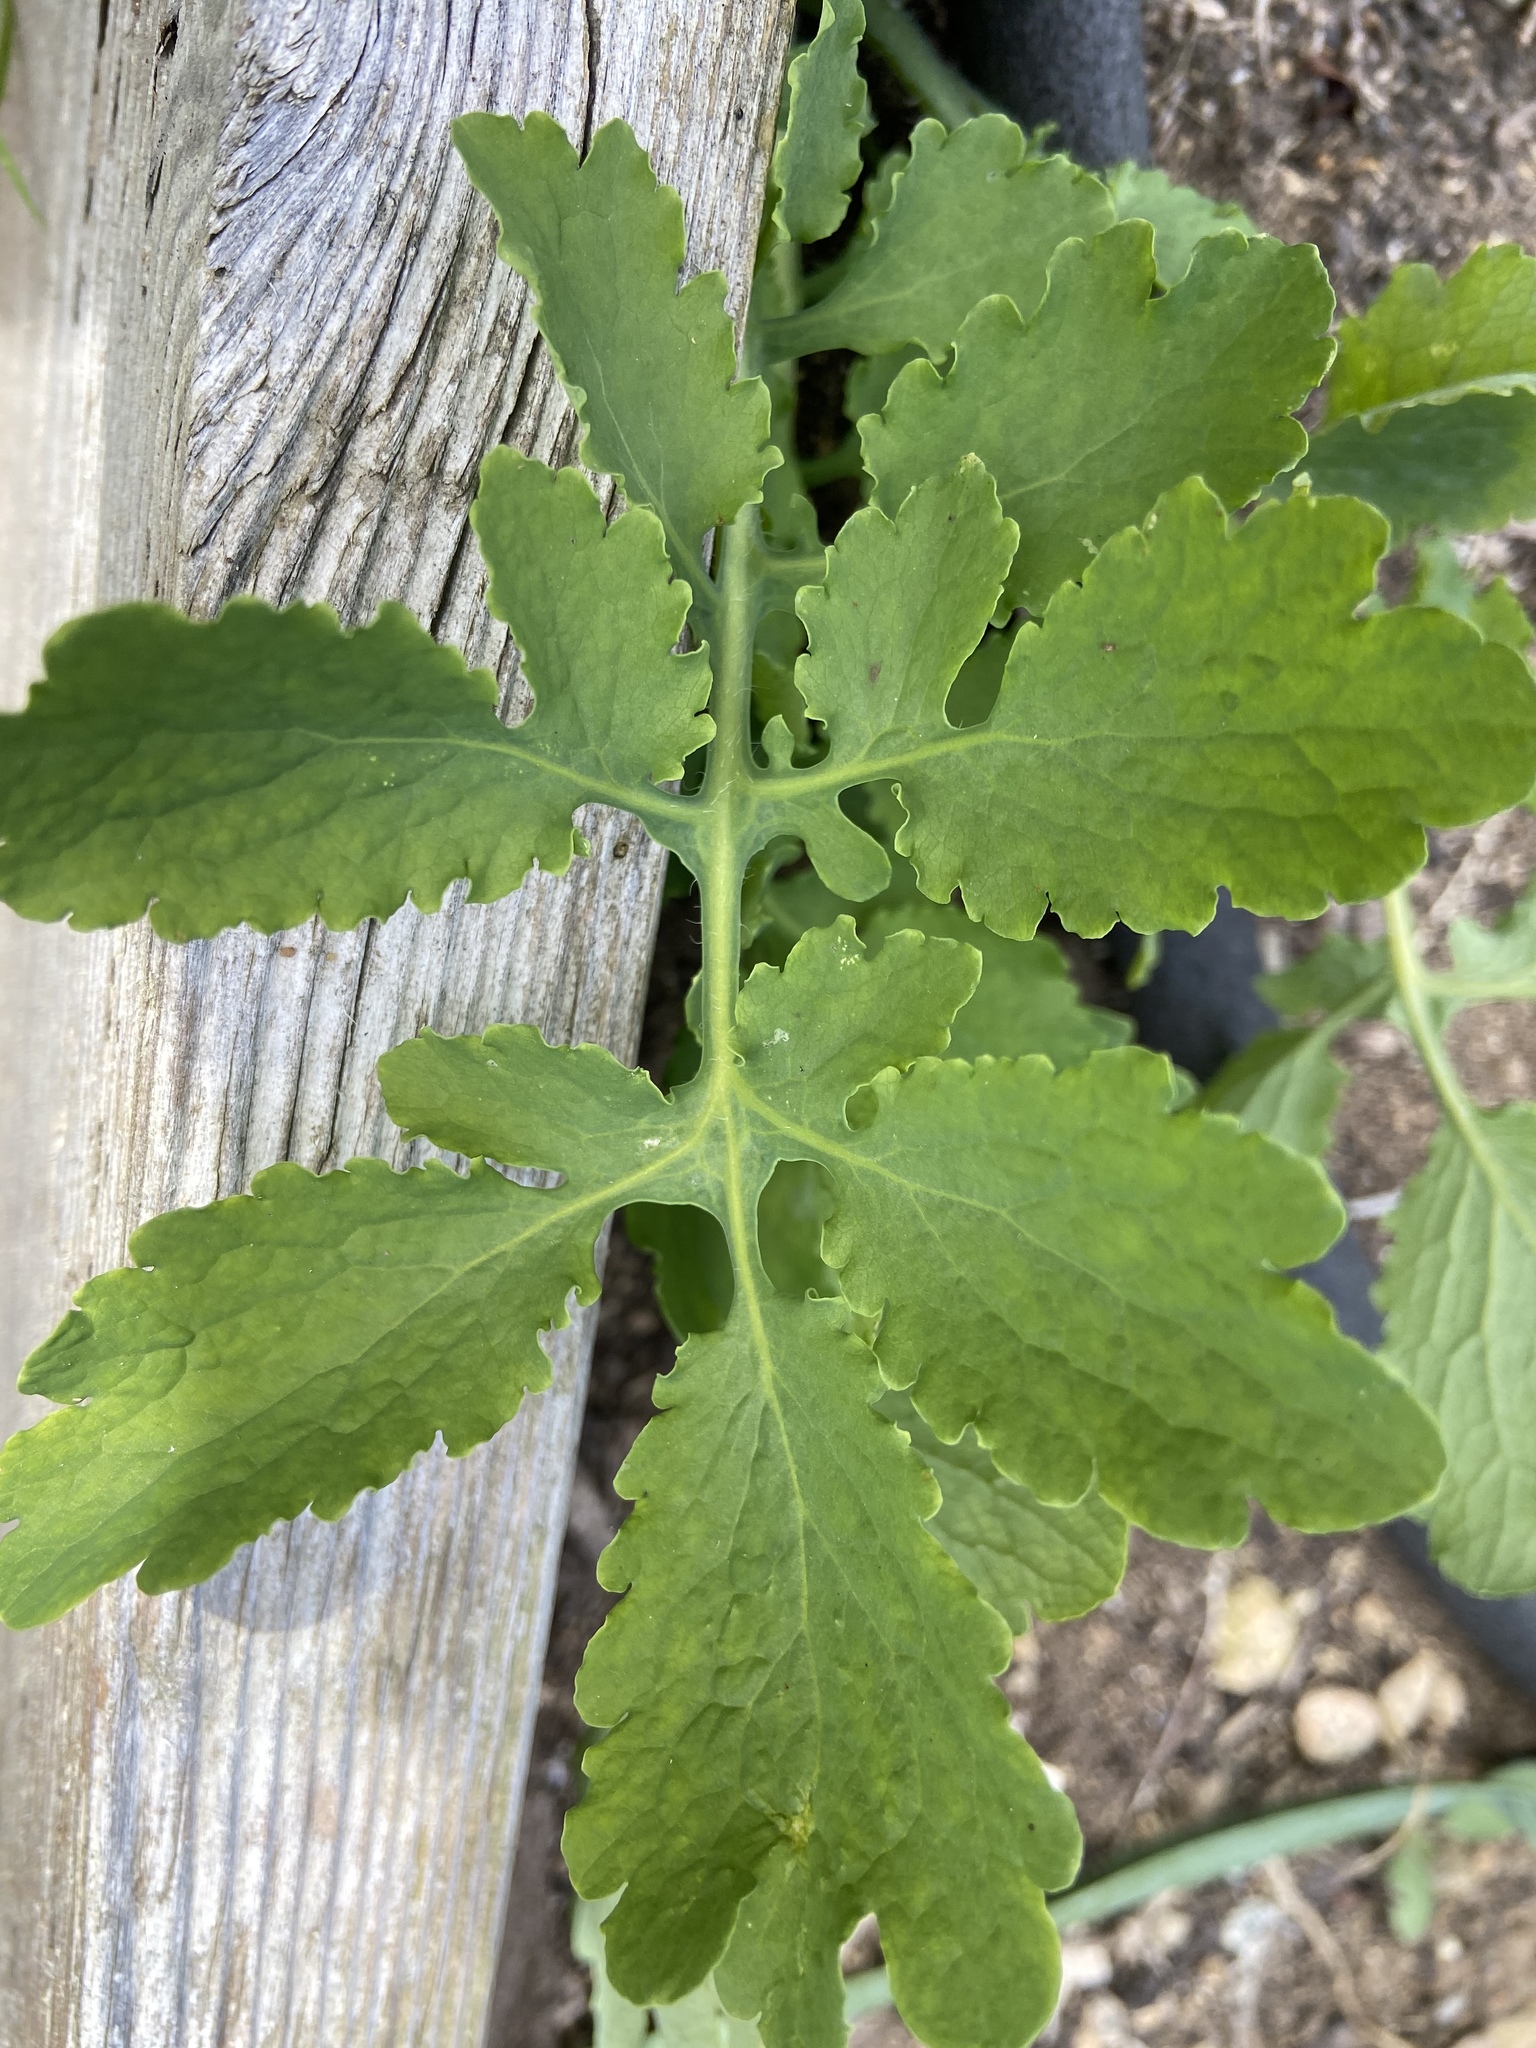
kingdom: Plantae
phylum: Tracheophyta
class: Magnoliopsida
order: Ranunculales
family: Papaveraceae
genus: Chelidonium
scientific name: Chelidonium majus
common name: Greater celandine
